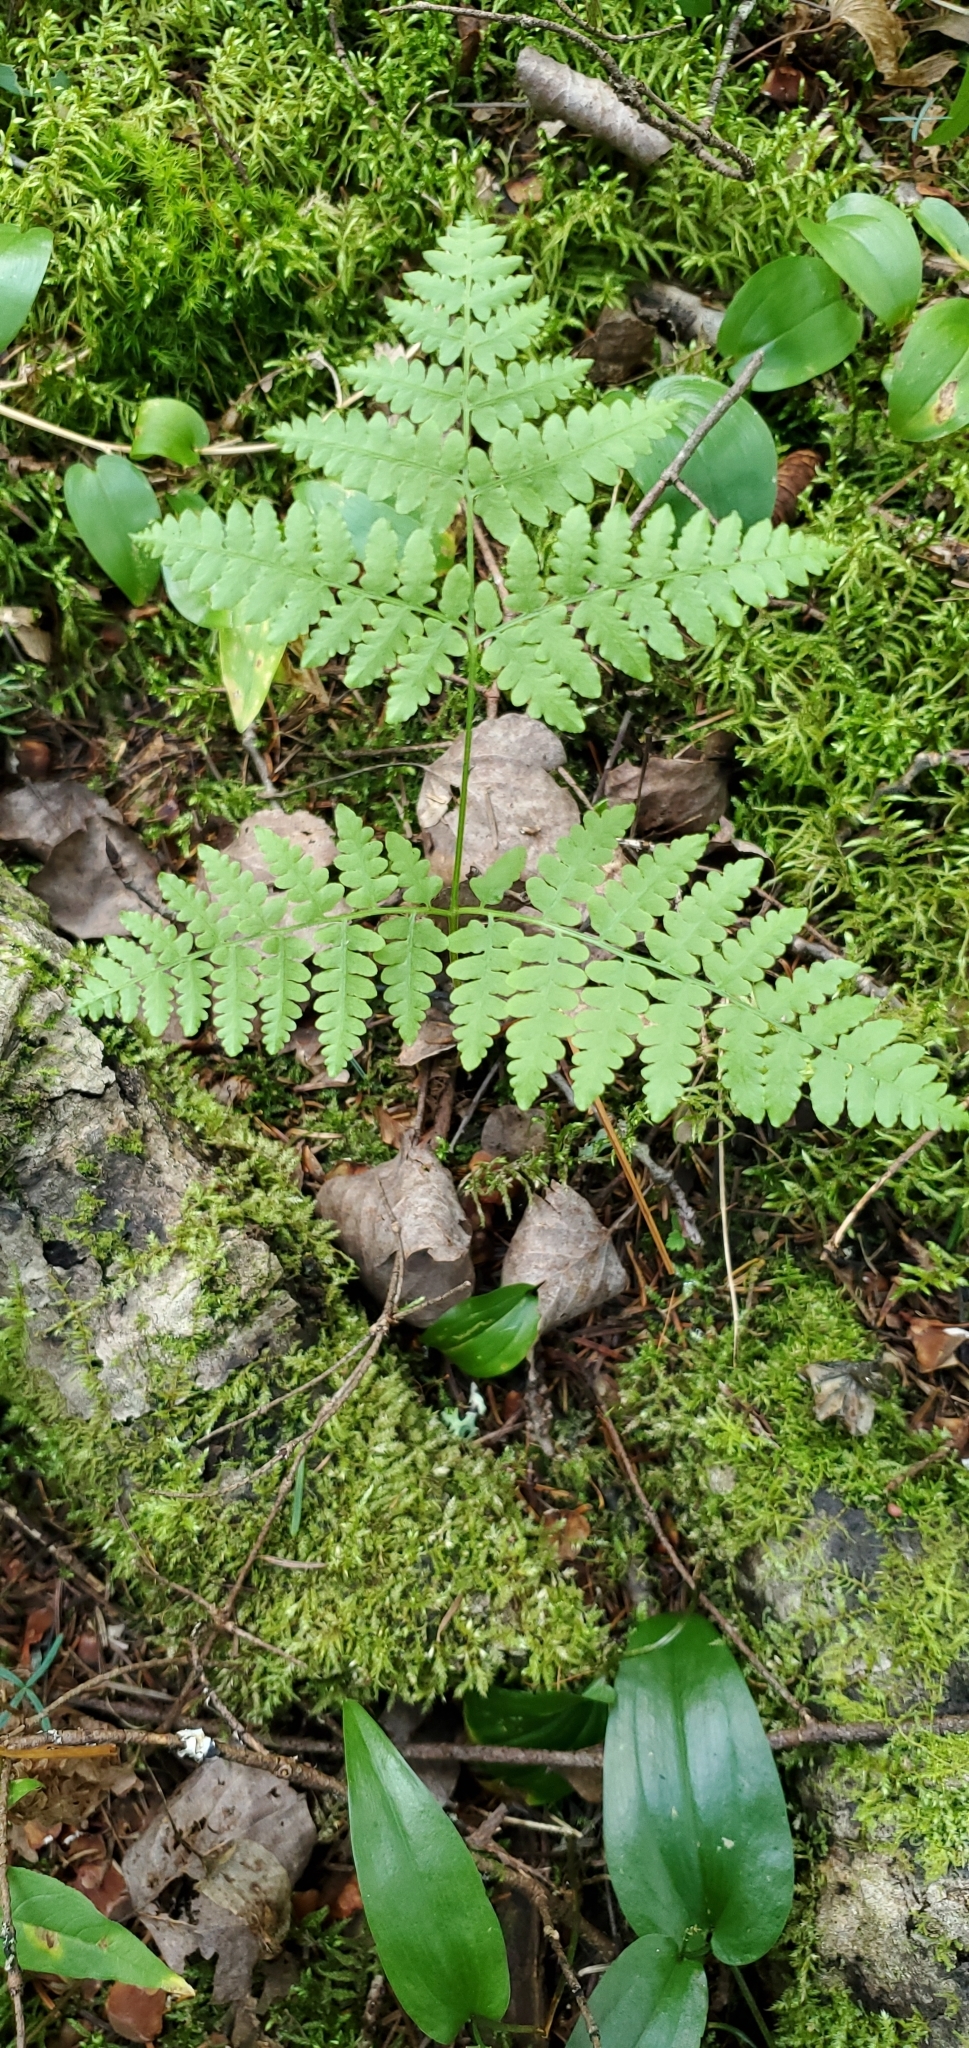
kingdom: Plantae
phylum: Tracheophyta
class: Polypodiopsida
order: Polypodiales
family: Dennstaedtiaceae
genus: Pteridium
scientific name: Pteridium aquilinum
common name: Bracken
